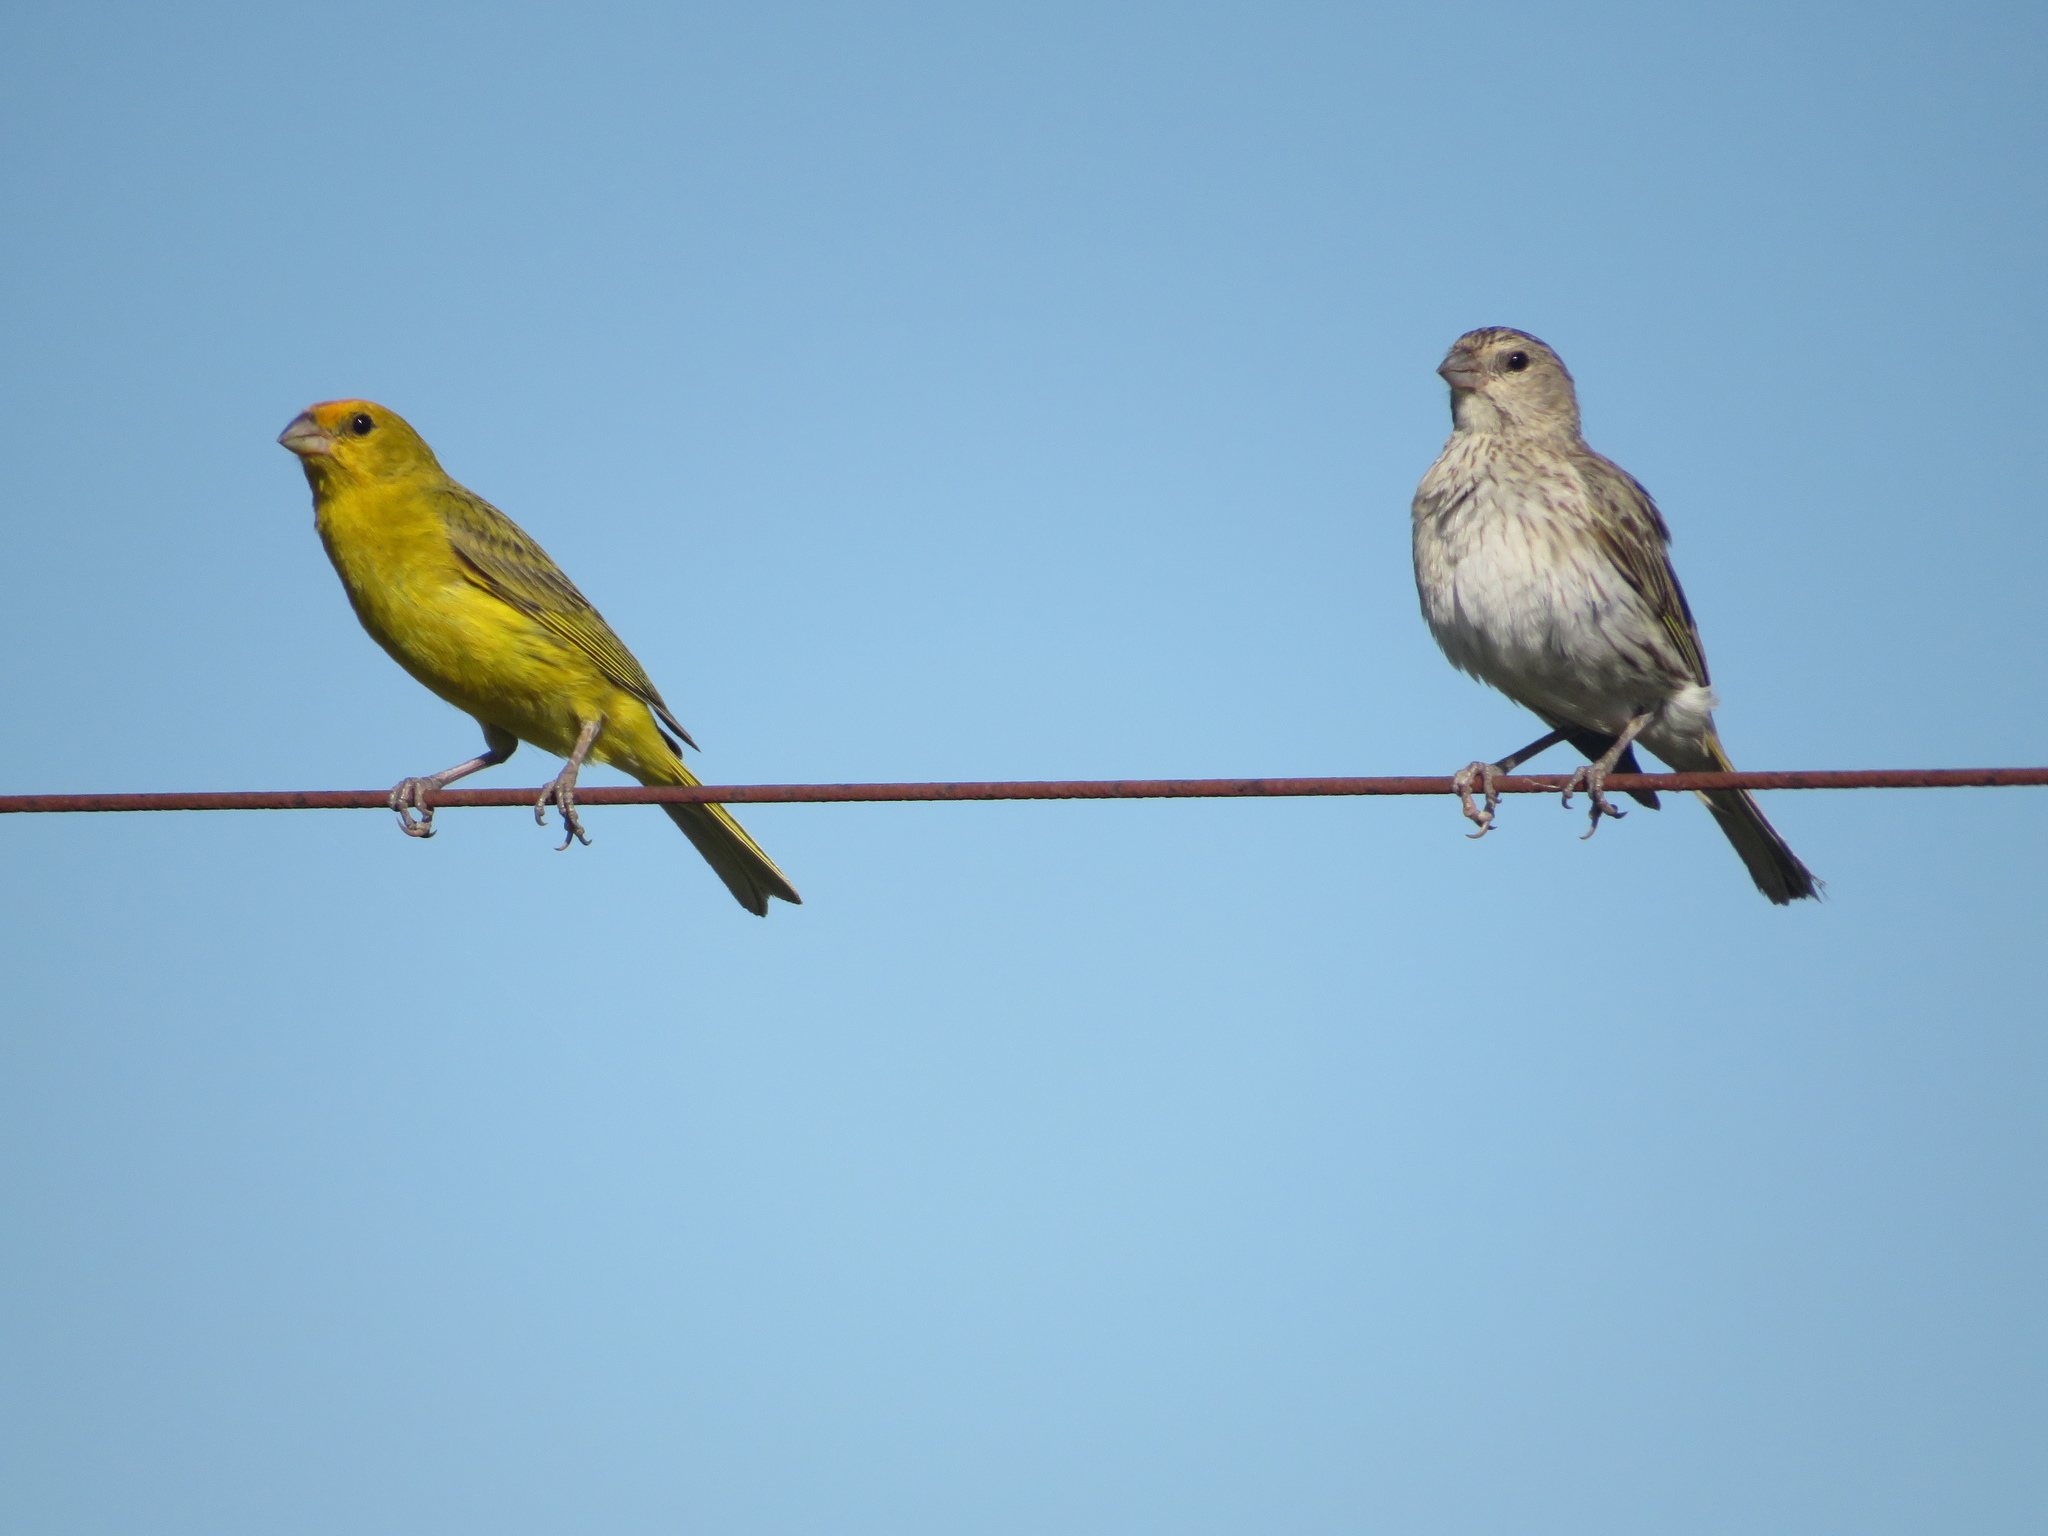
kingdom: Animalia
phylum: Chordata
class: Aves
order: Passeriformes
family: Thraupidae
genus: Sicalis
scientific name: Sicalis flaveola
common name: Saffron finch
